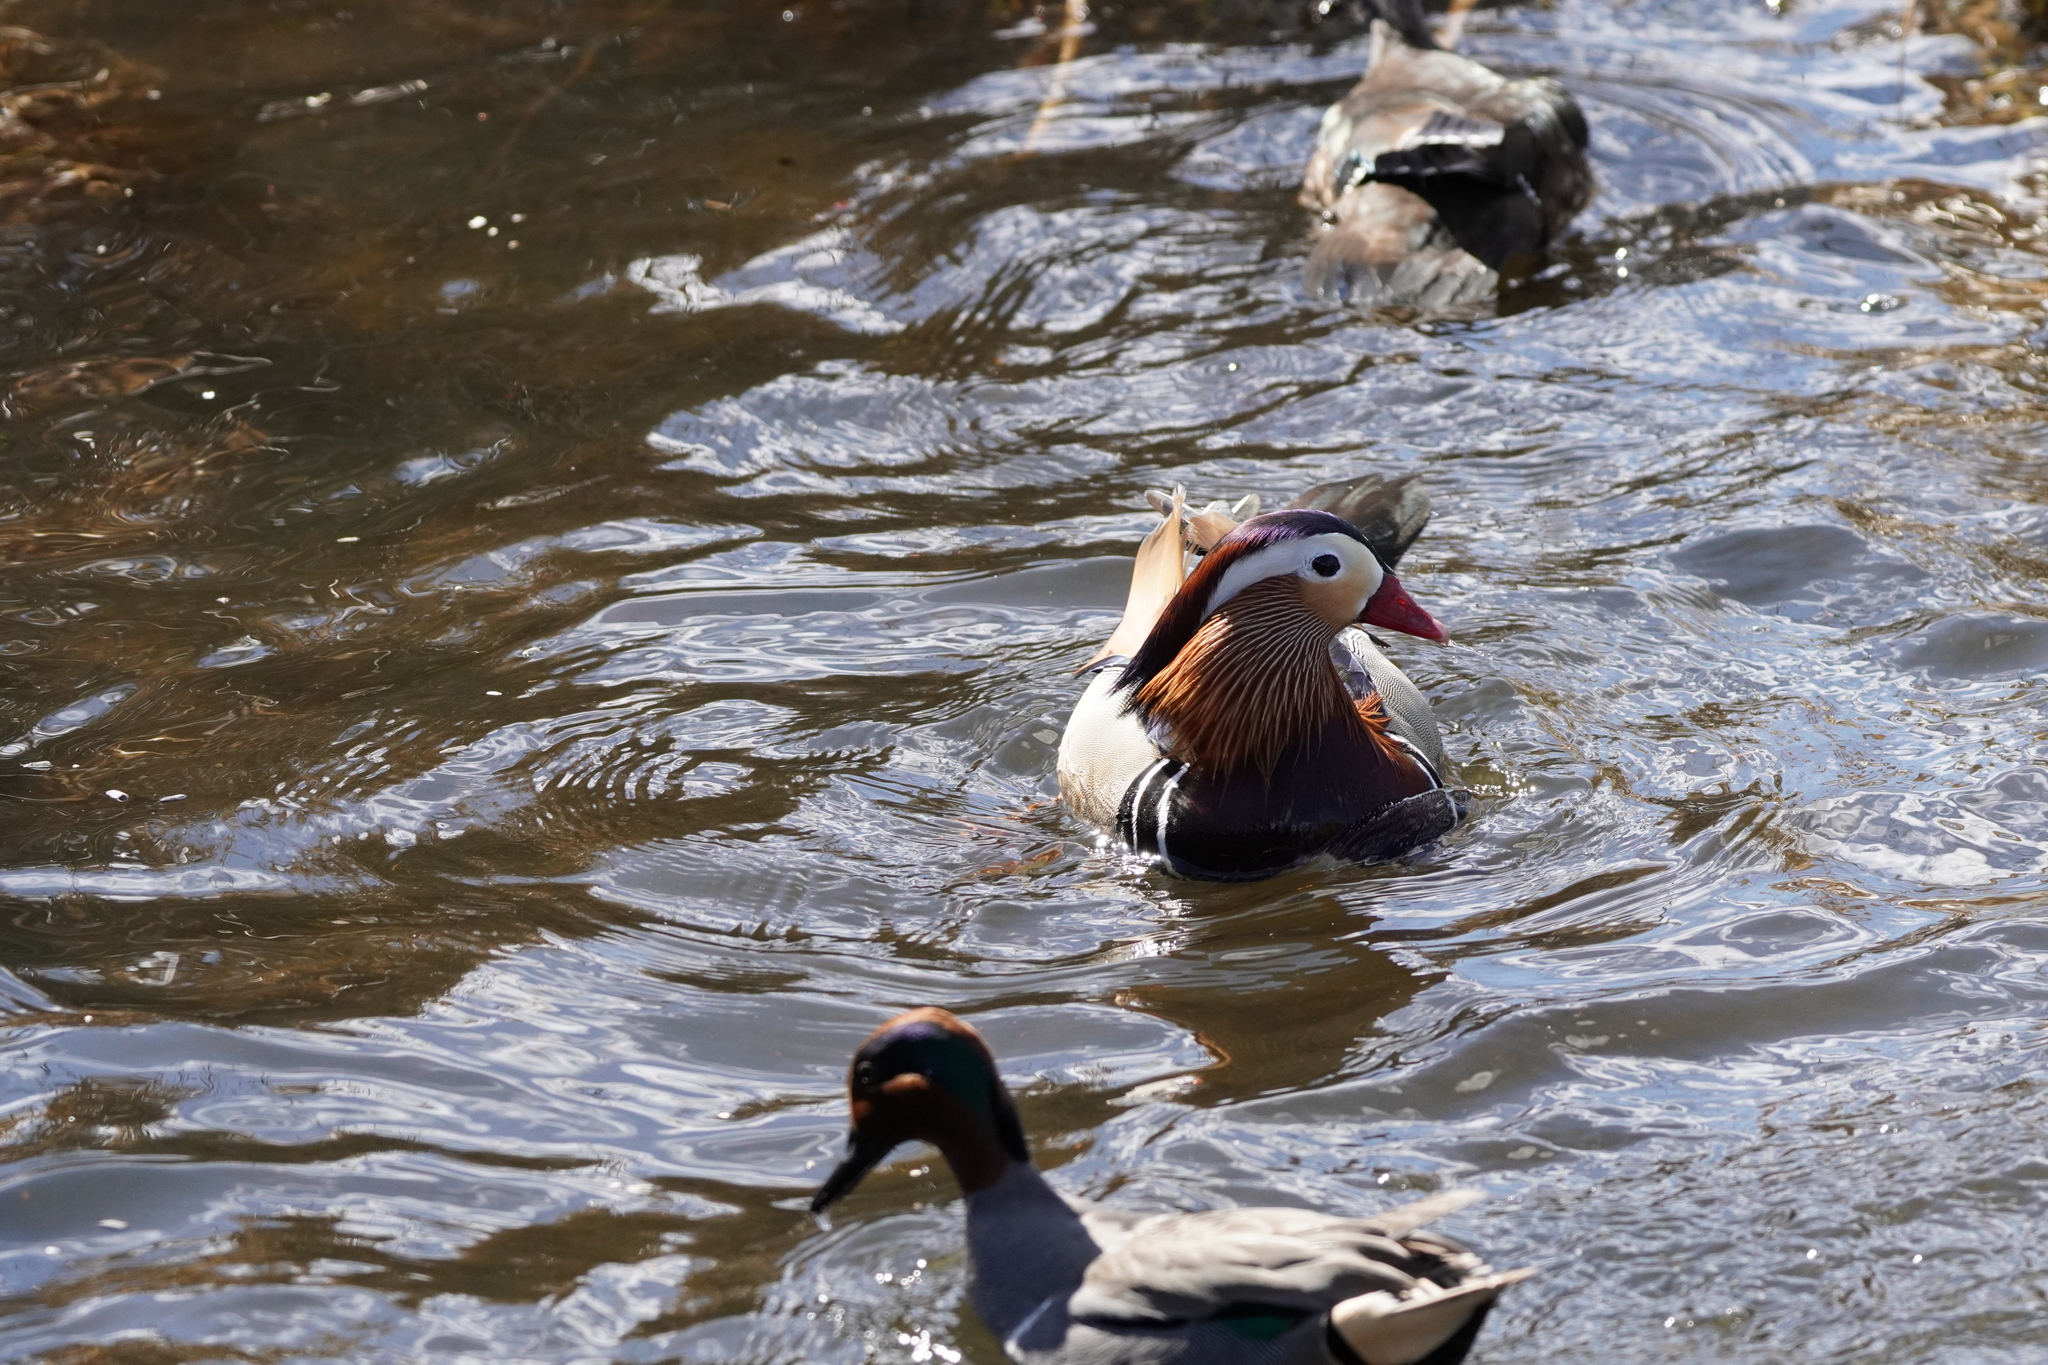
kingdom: Animalia
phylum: Chordata
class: Aves
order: Anseriformes
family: Anatidae
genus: Aix
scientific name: Aix galericulata
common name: Mandarin duck
